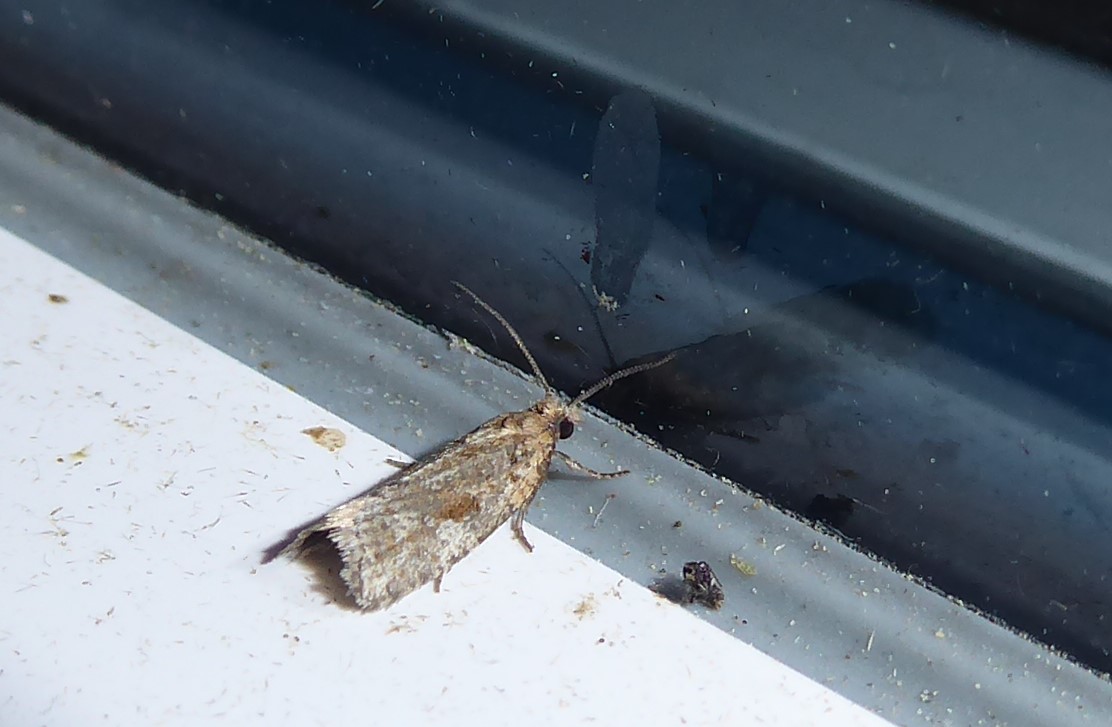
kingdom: Animalia
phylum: Arthropoda
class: Insecta
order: Lepidoptera
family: Tortricidae
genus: Capua
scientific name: Capua semiferana
